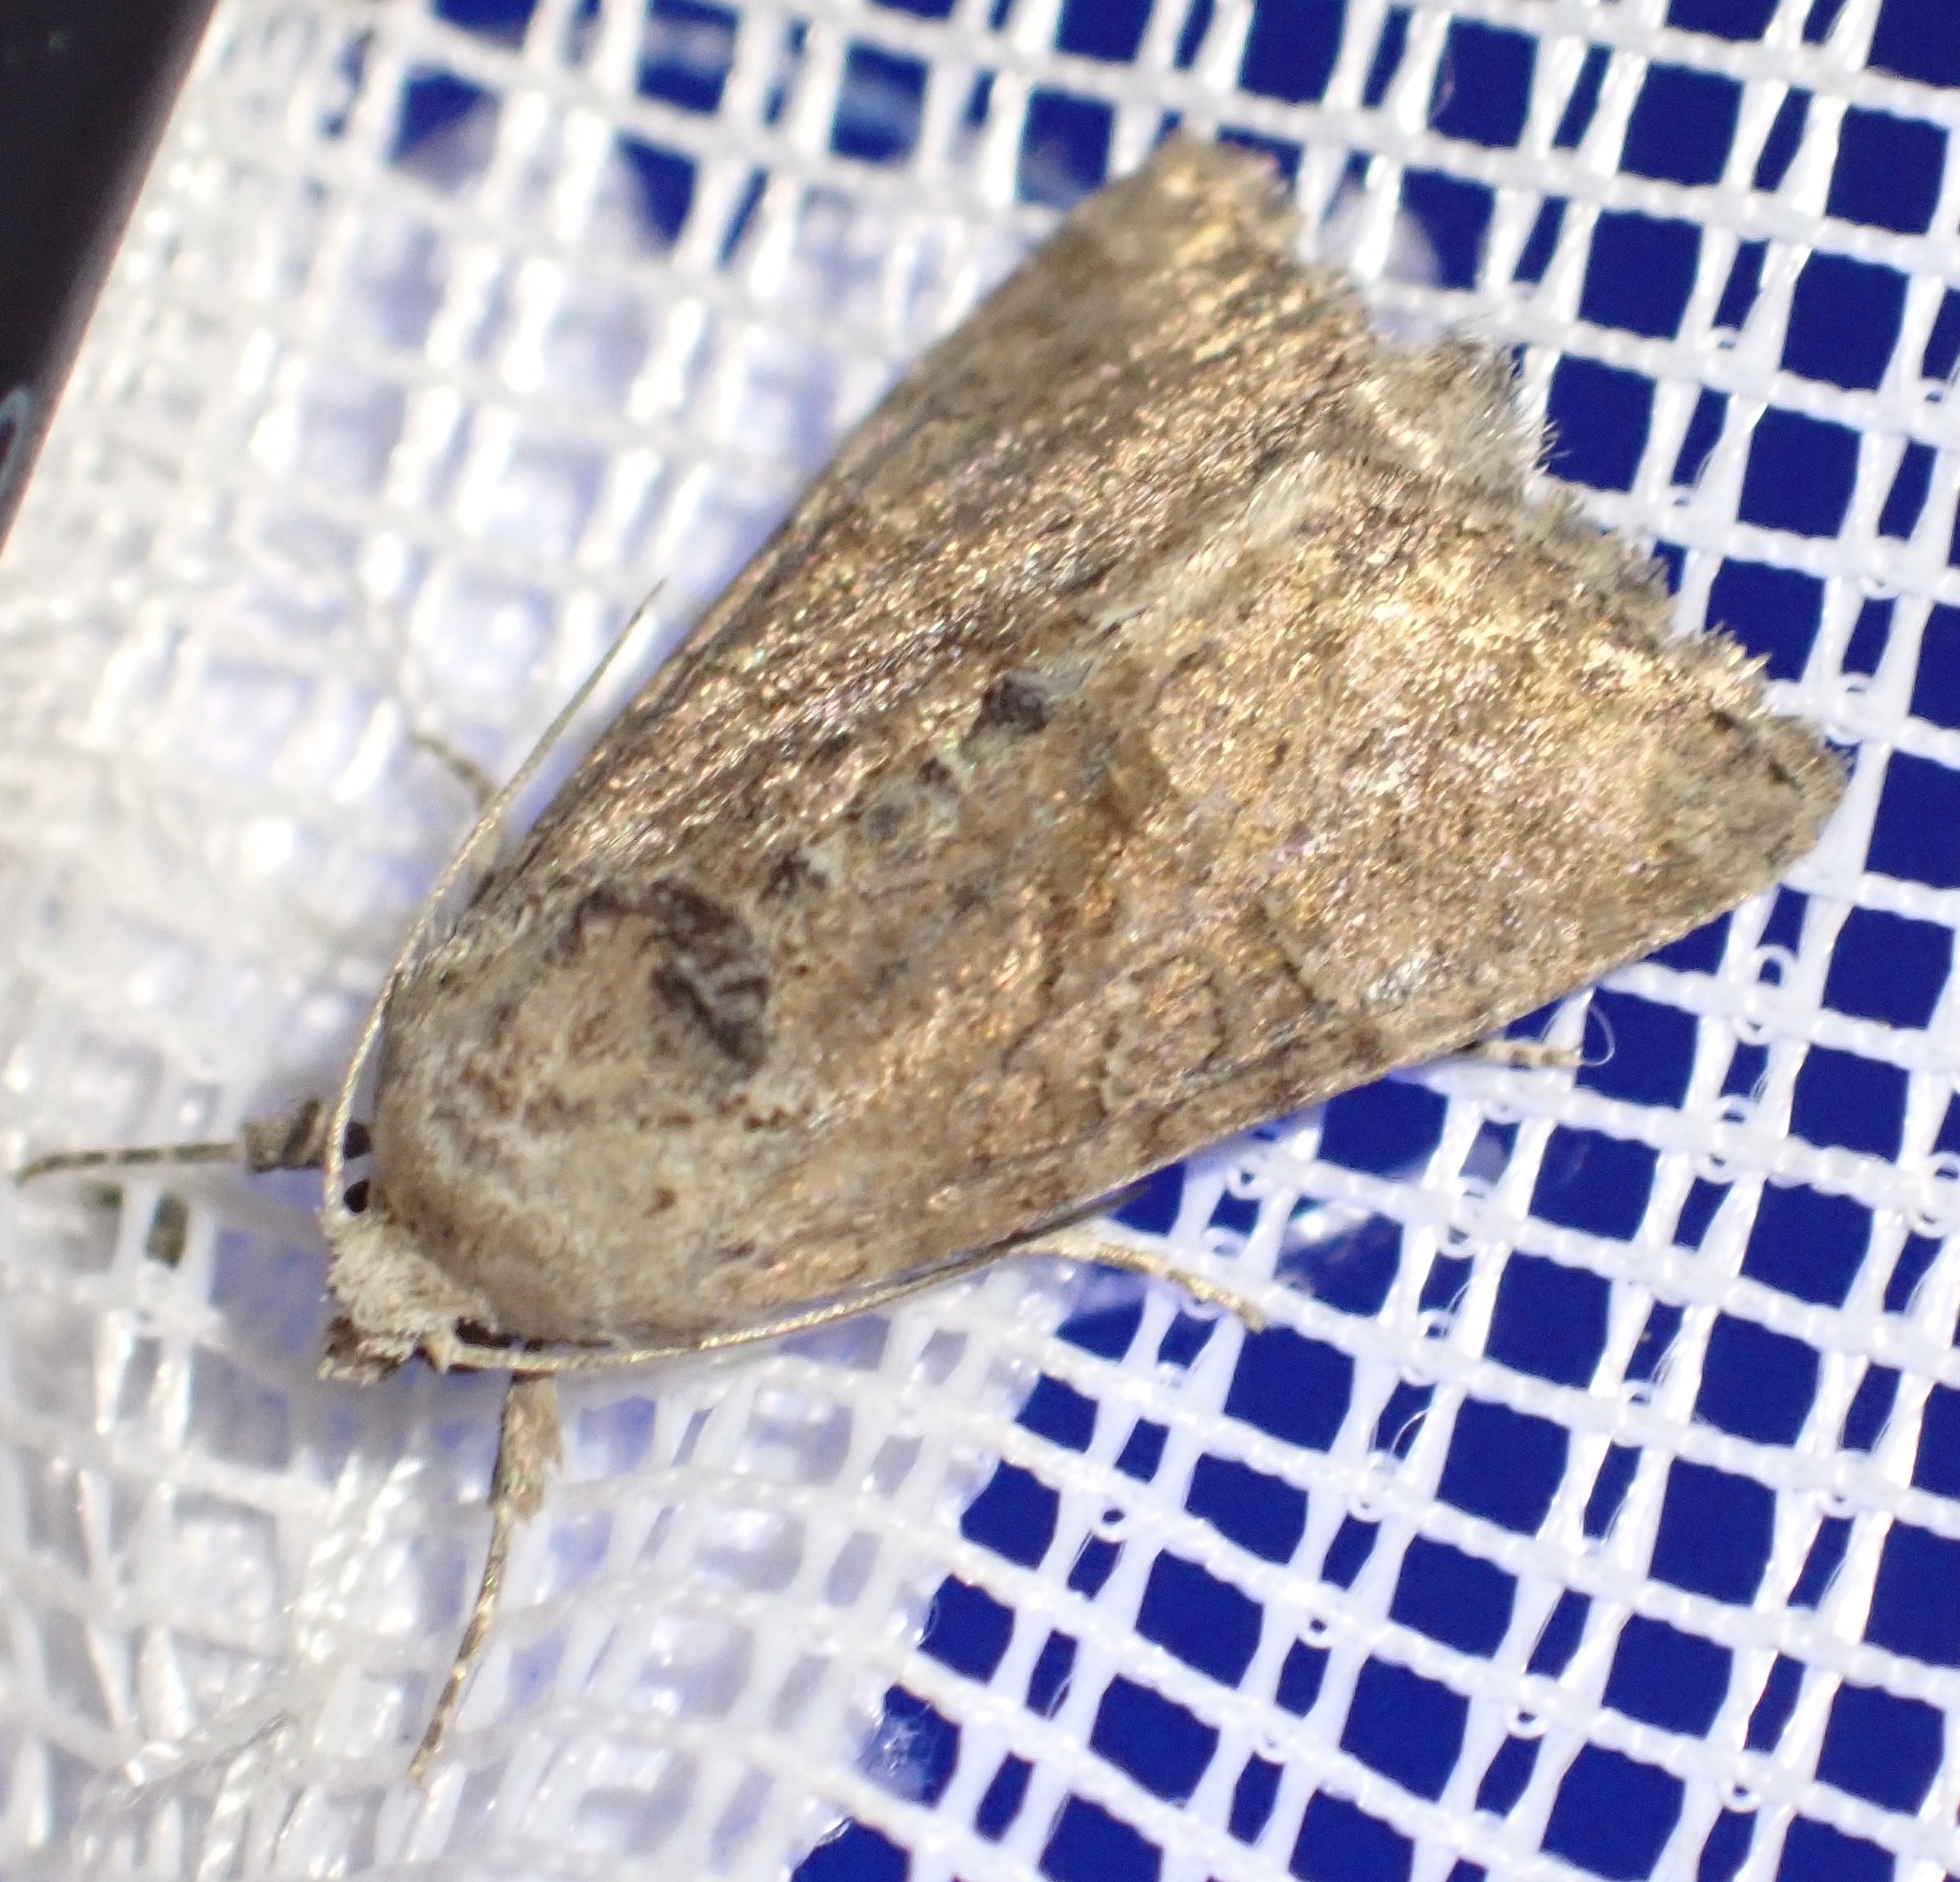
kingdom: Animalia
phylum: Arthropoda
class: Insecta
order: Lepidoptera
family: Noctuidae
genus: Mesoligia
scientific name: Mesoligia furuncula
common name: Cloaked minor
